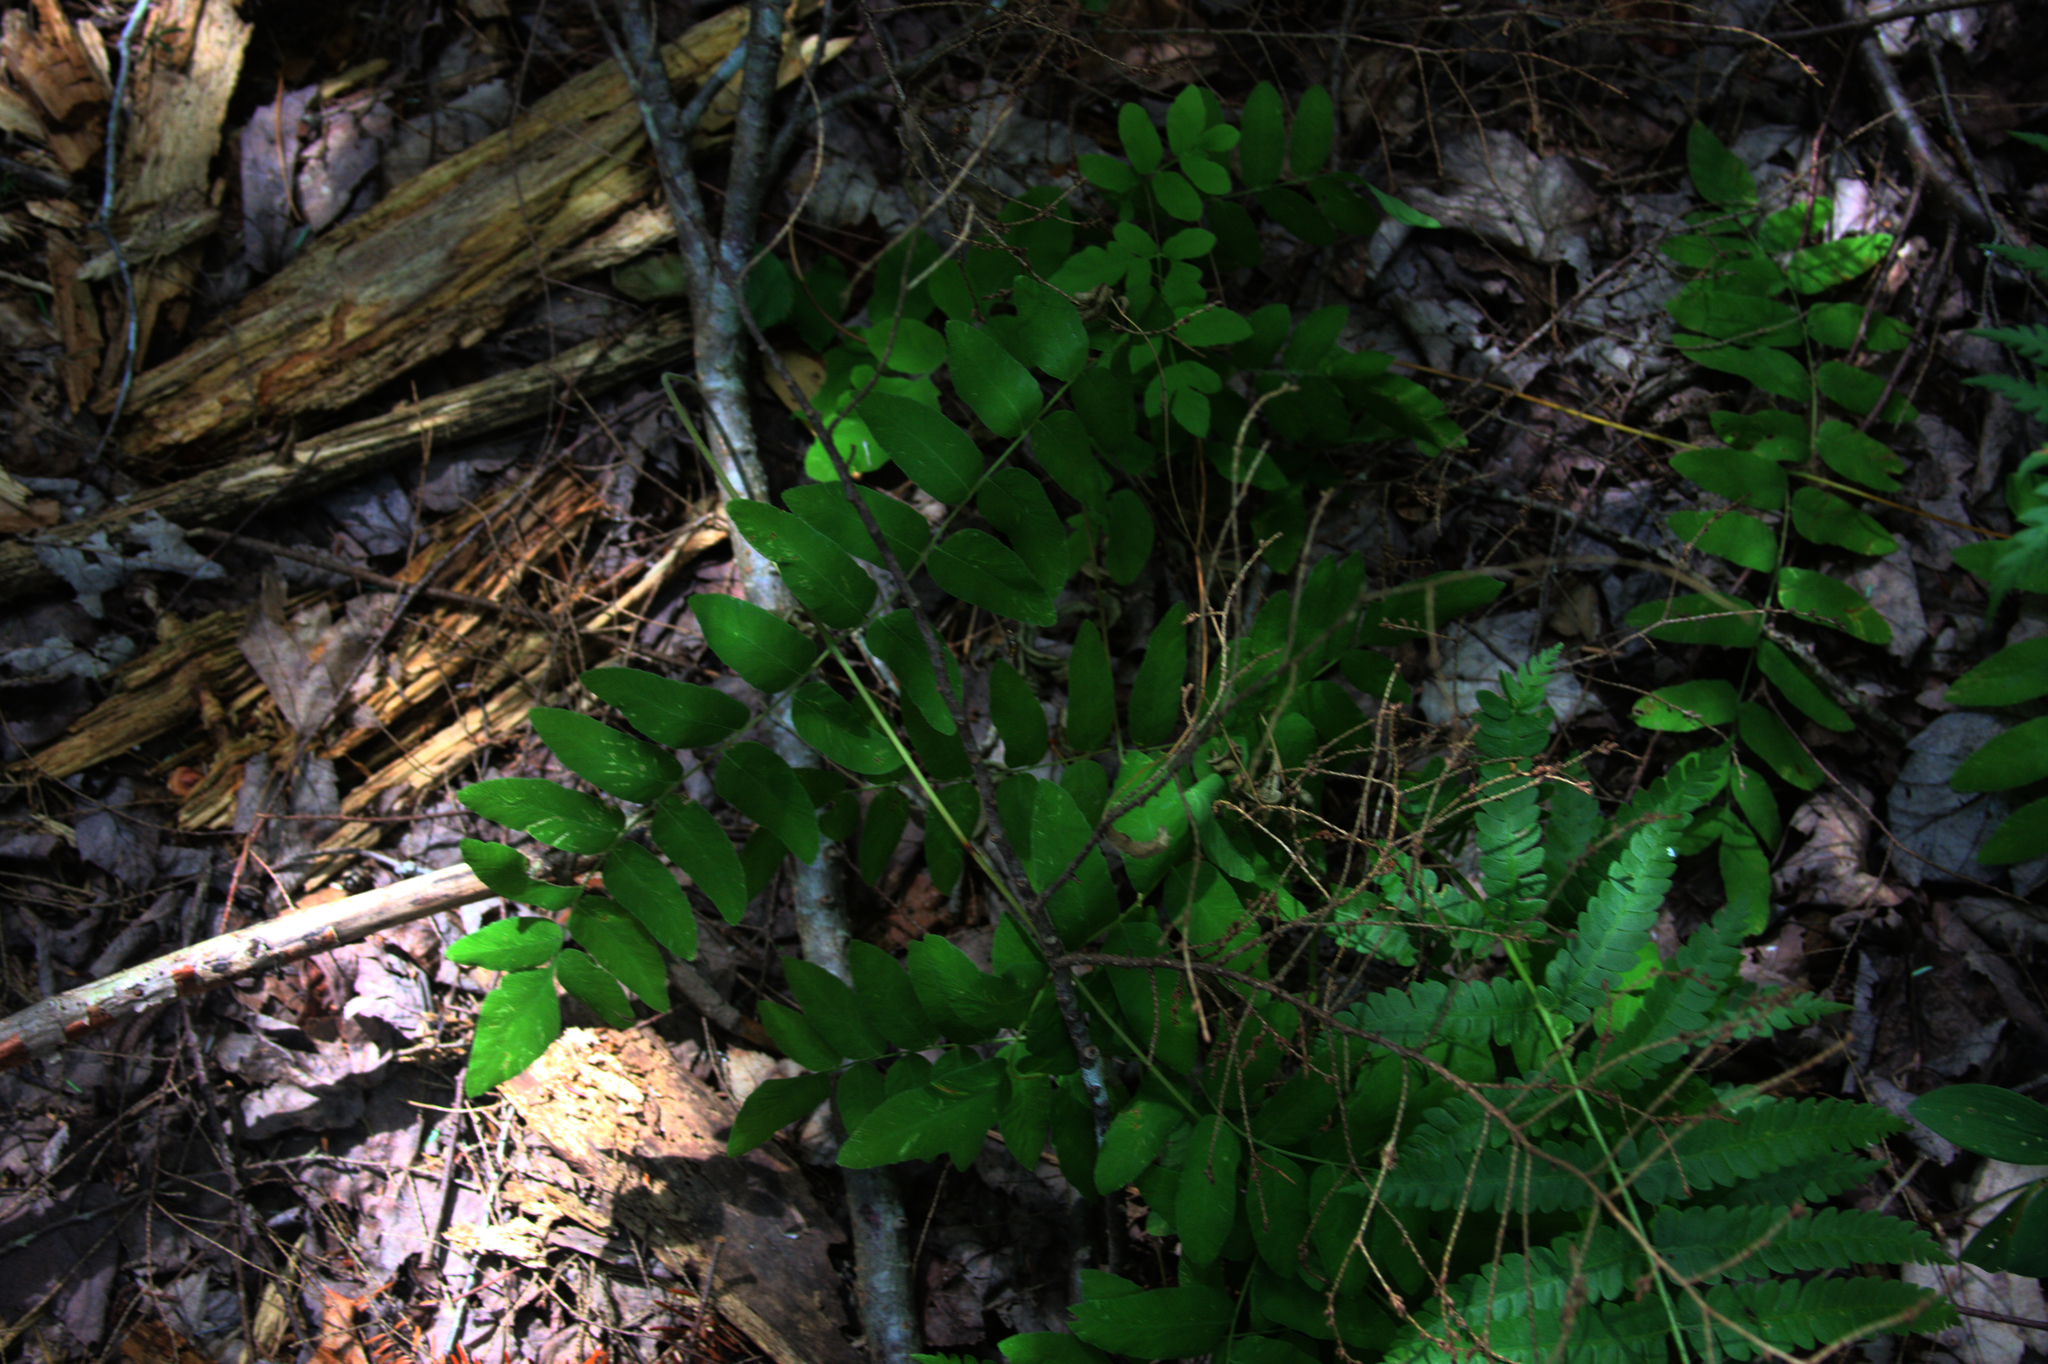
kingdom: Plantae
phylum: Tracheophyta
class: Polypodiopsida
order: Osmundales
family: Osmundaceae
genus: Osmunda
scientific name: Osmunda spectabilis
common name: American royal fern
